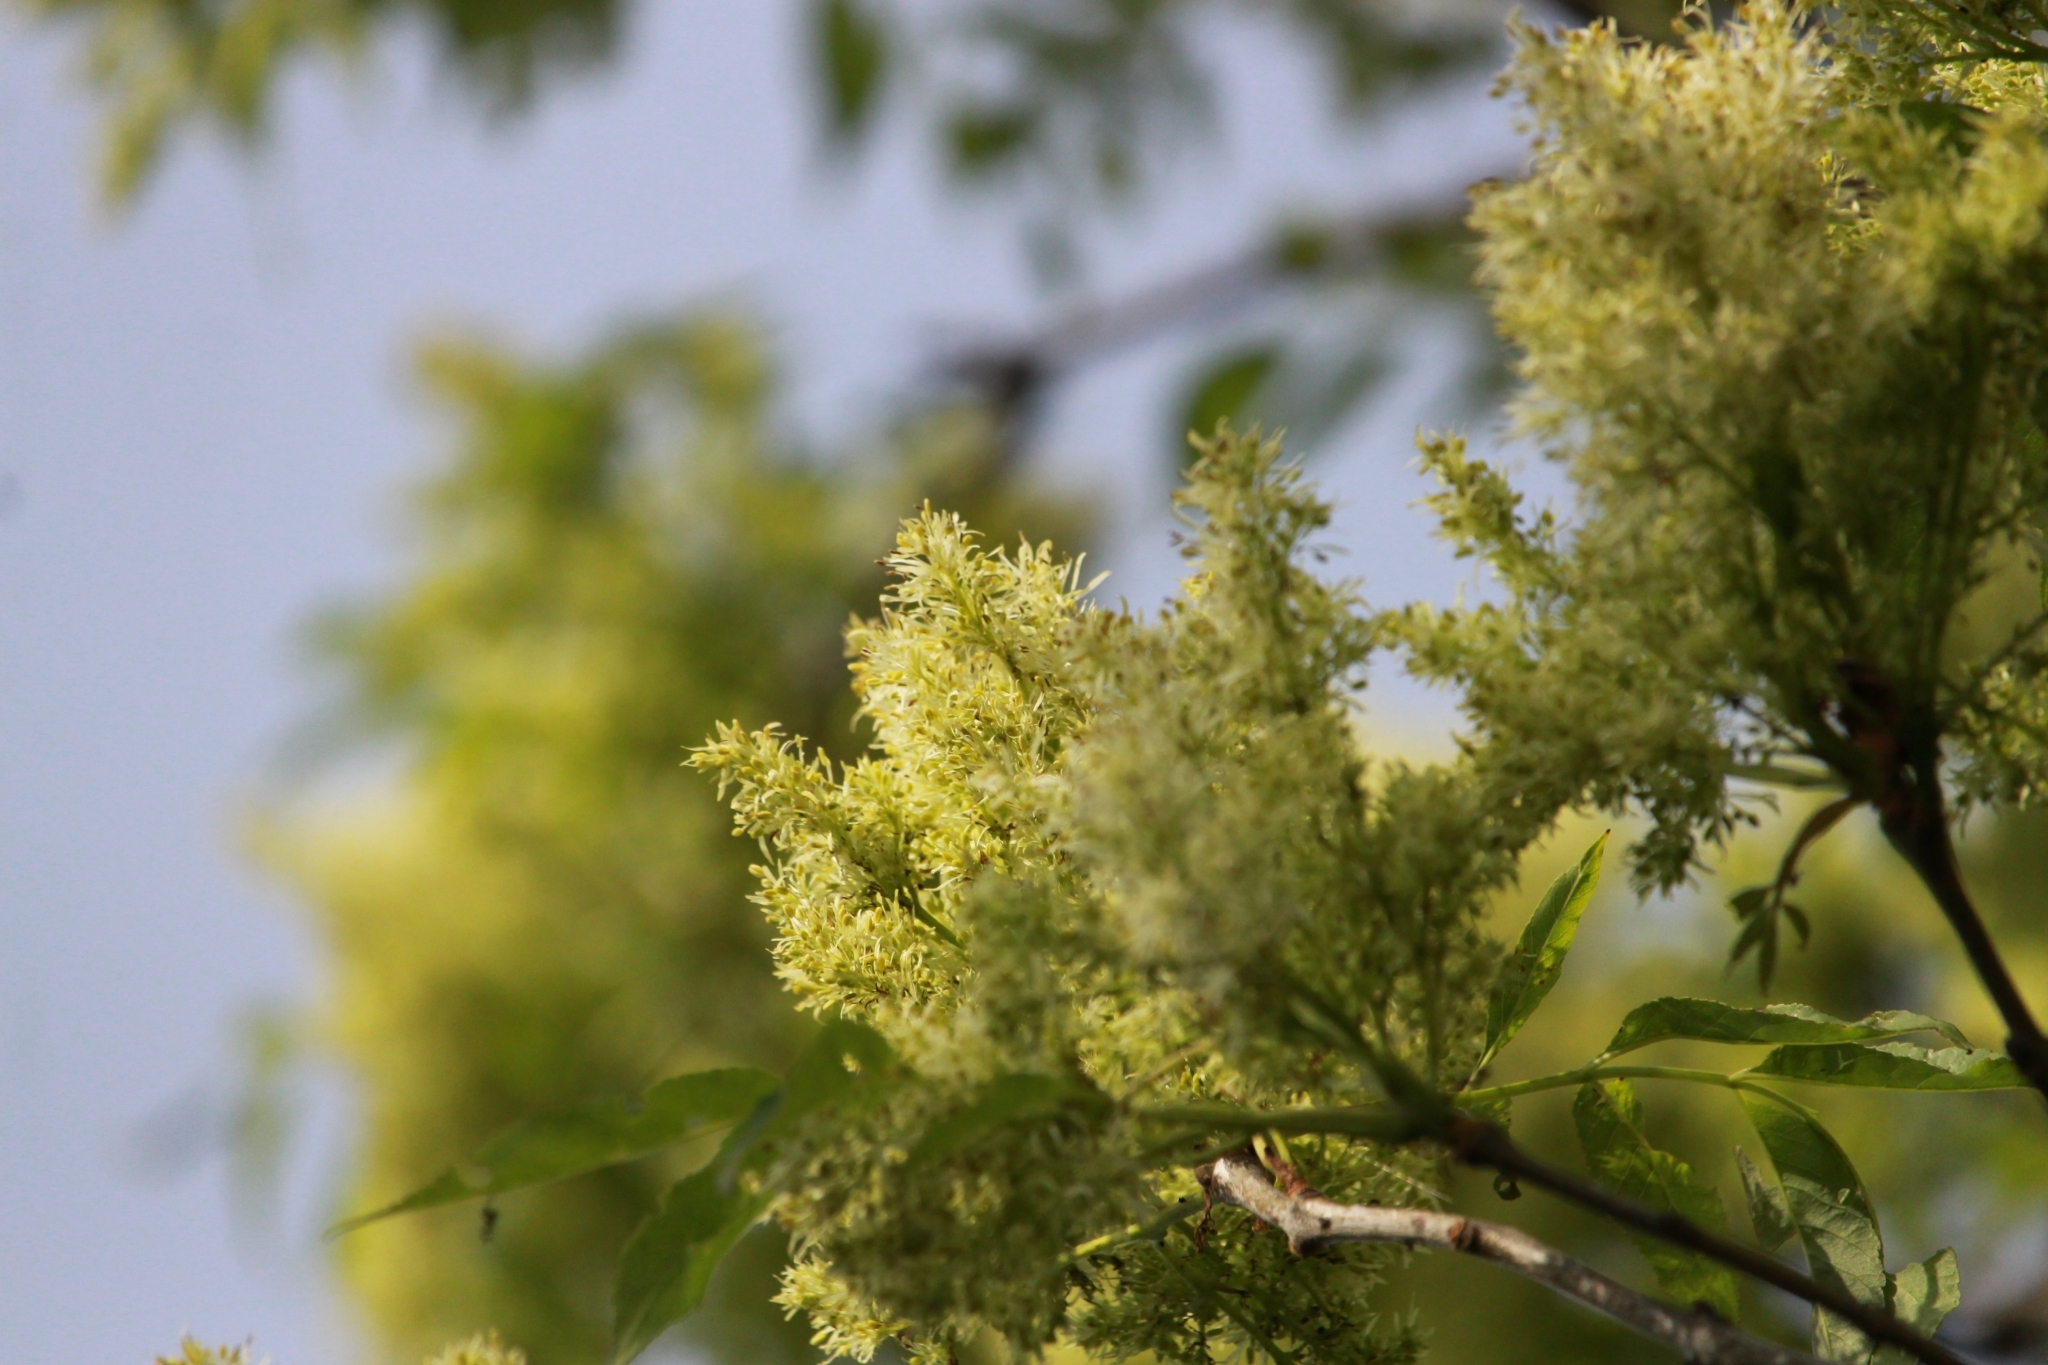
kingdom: Plantae
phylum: Tracheophyta
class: Magnoliopsida
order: Lamiales
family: Oleaceae
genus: Fraxinus
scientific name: Fraxinus ornus
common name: Manna ash
